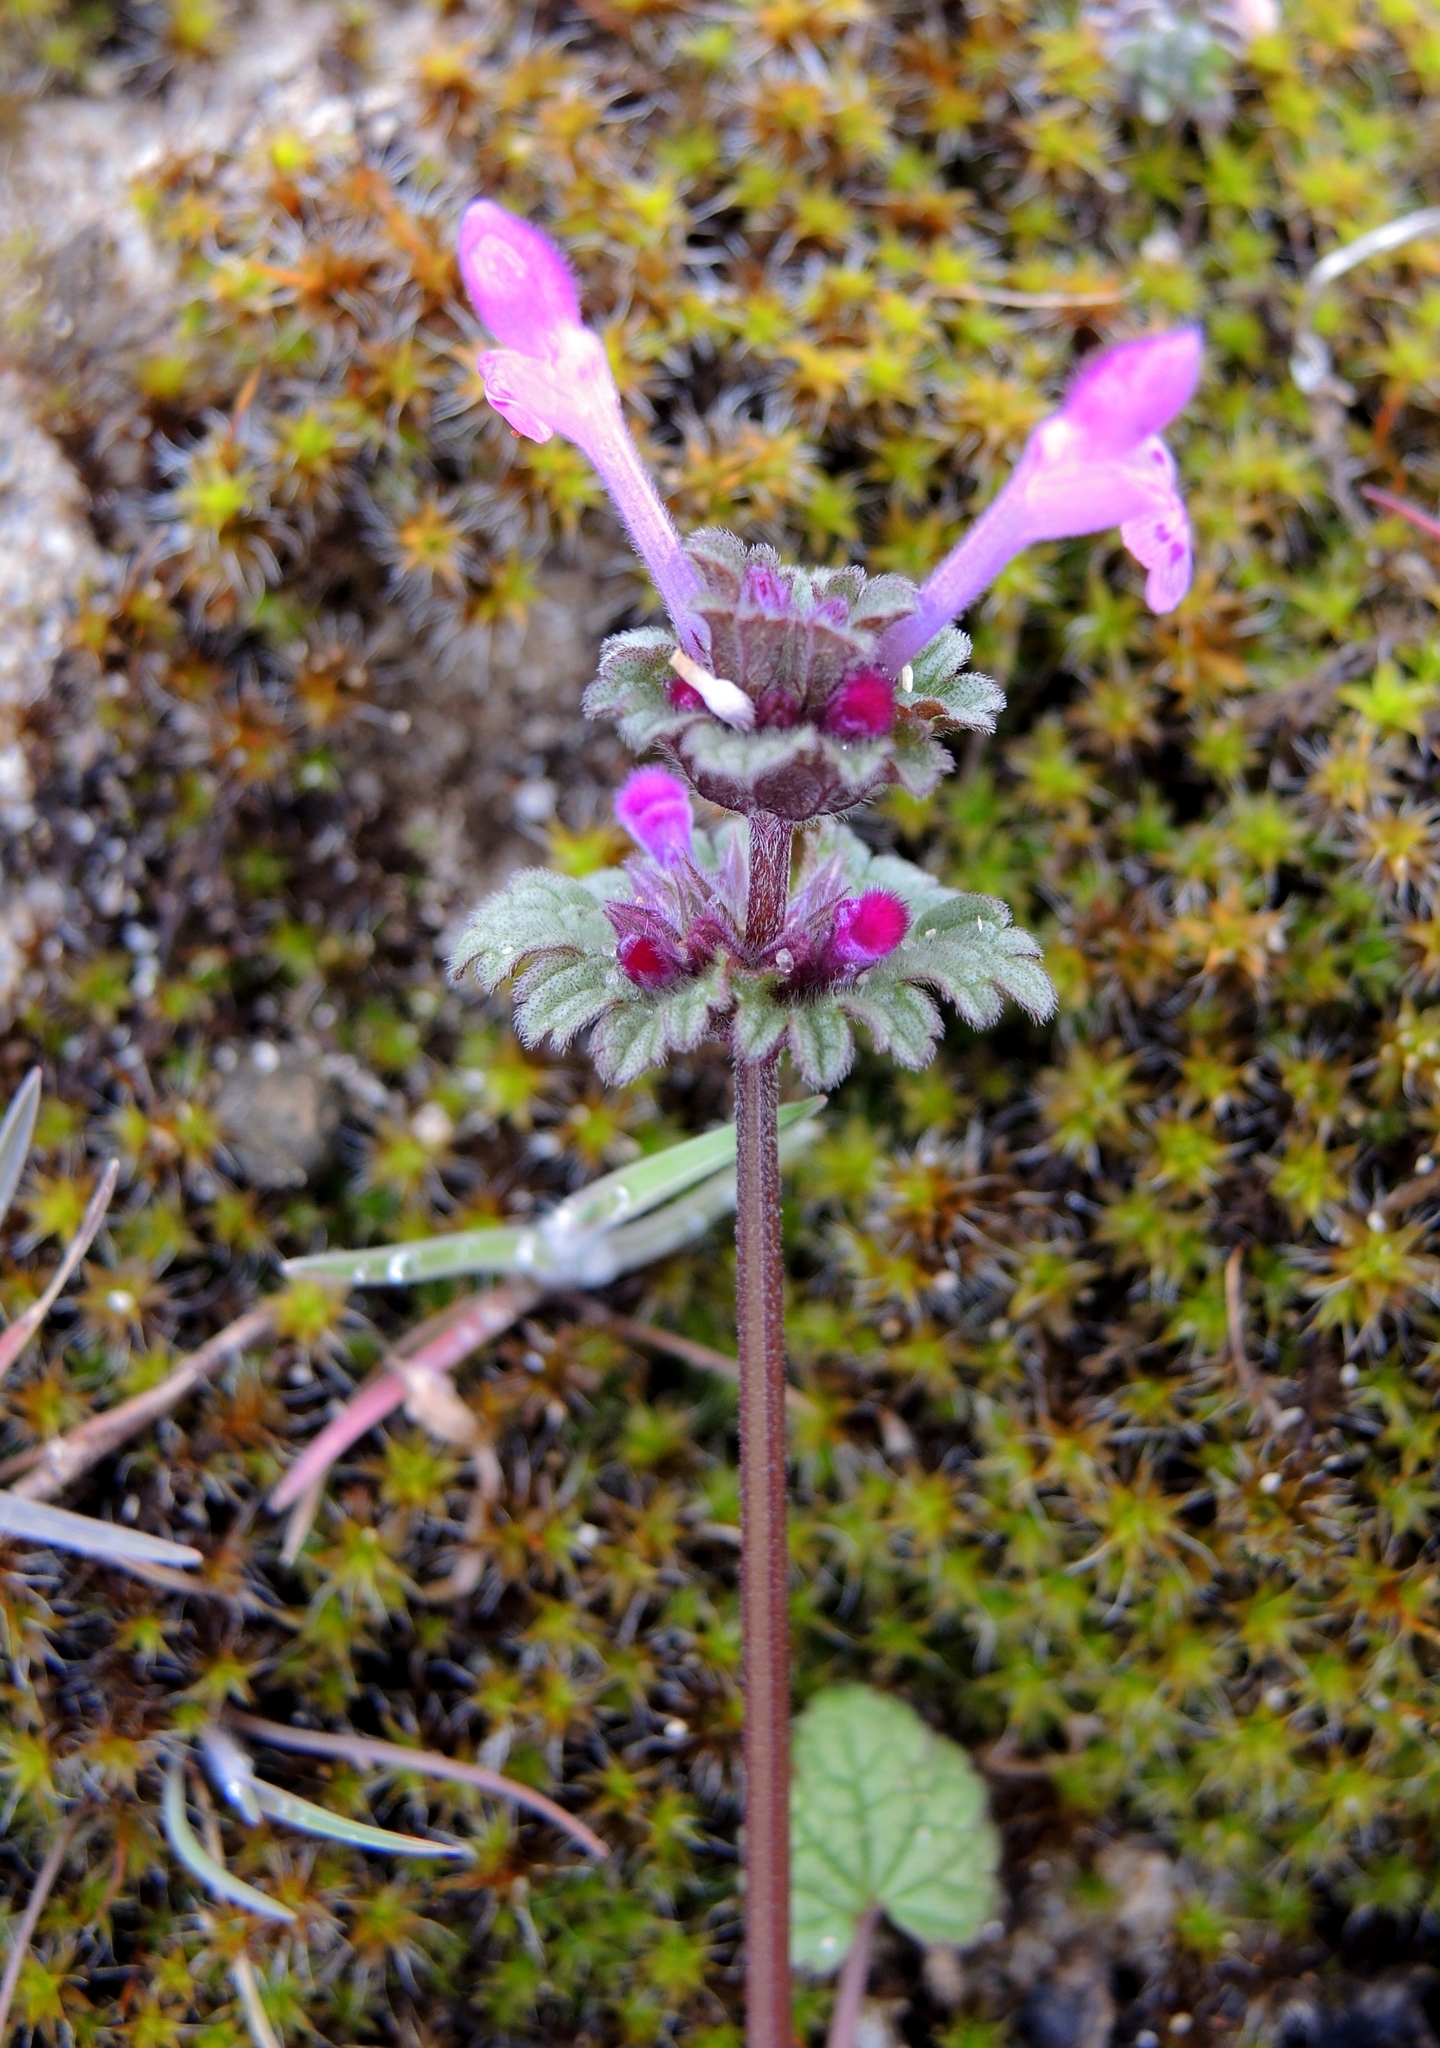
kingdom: Plantae
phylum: Tracheophyta
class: Magnoliopsida
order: Lamiales
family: Lamiaceae
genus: Lamium
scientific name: Lamium amplexicaule
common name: Henbit dead-nettle
